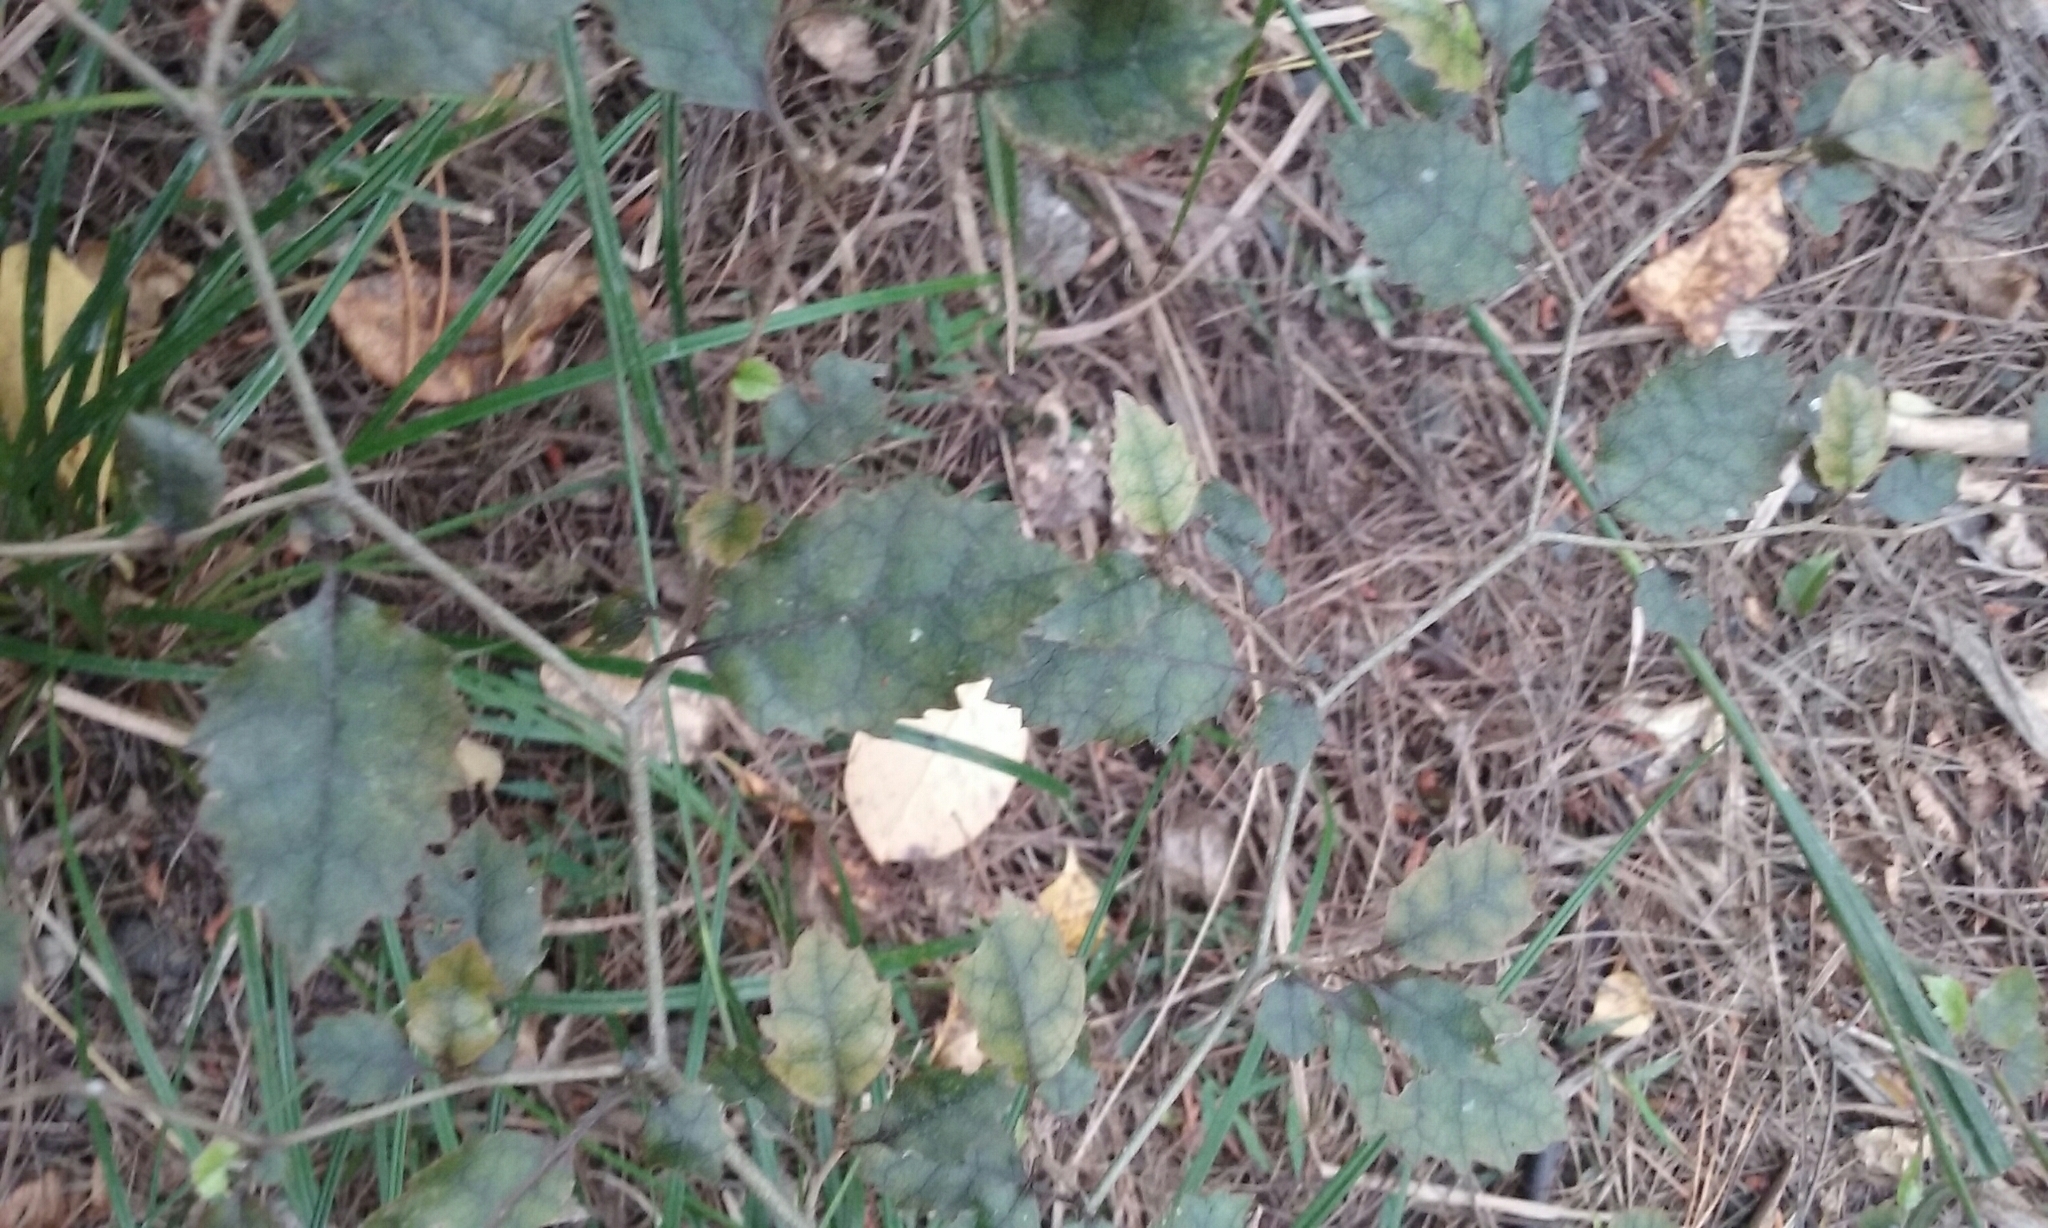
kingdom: Plantae
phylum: Tracheophyta
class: Magnoliopsida
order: Asterales
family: Rousseaceae
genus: Carpodetus
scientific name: Carpodetus serratus
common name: White mapau
